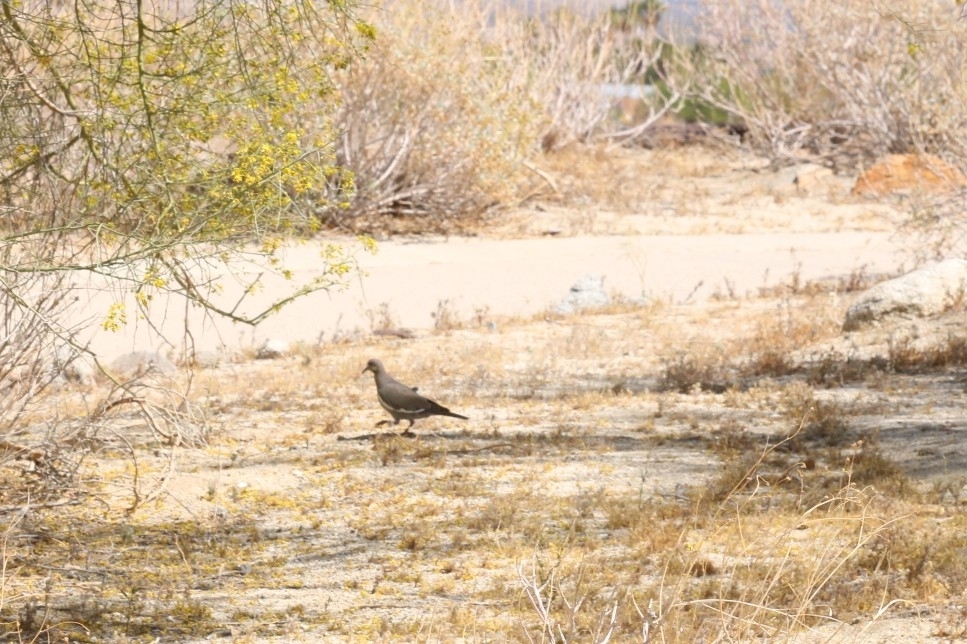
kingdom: Animalia
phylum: Chordata
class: Aves
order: Columbiformes
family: Columbidae
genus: Zenaida
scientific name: Zenaida asiatica
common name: White-winged dove
